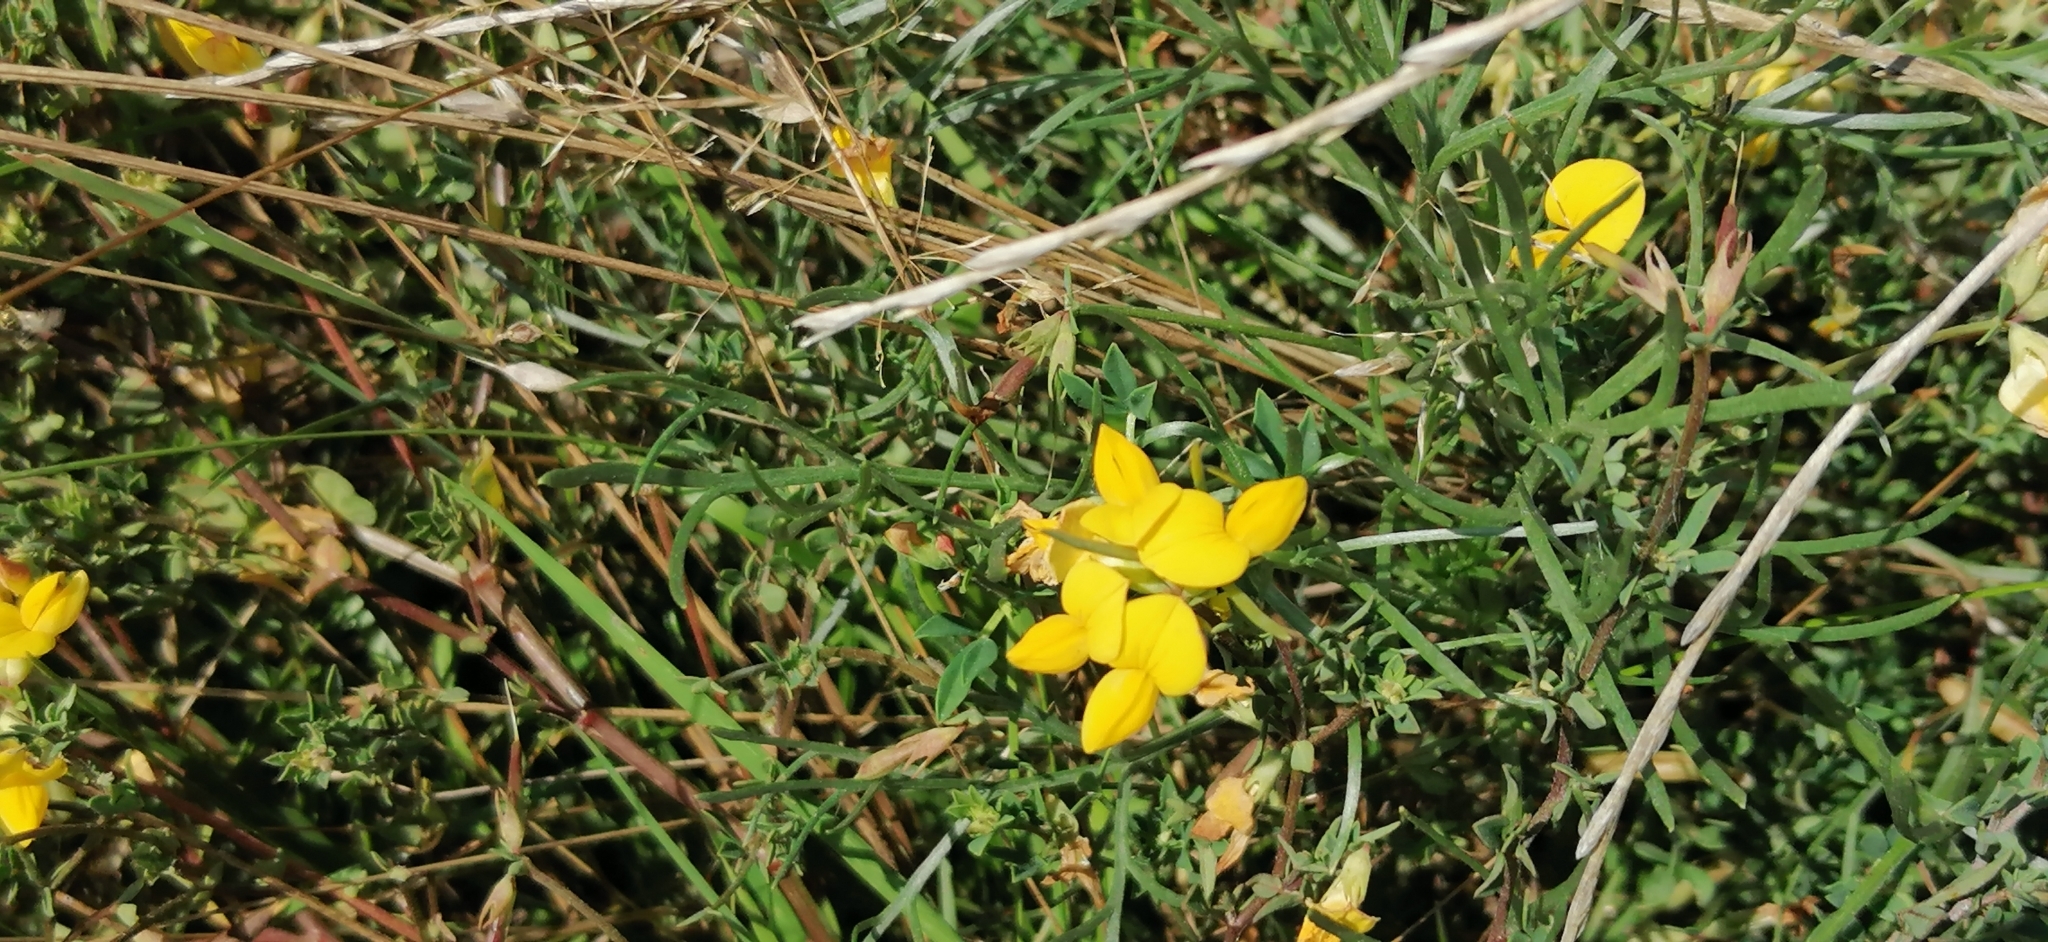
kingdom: Plantae
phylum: Tracheophyta
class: Magnoliopsida
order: Fabales
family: Fabaceae
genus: Lotus
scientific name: Lotus corniculatus
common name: Common bird's-foot-trefoil
